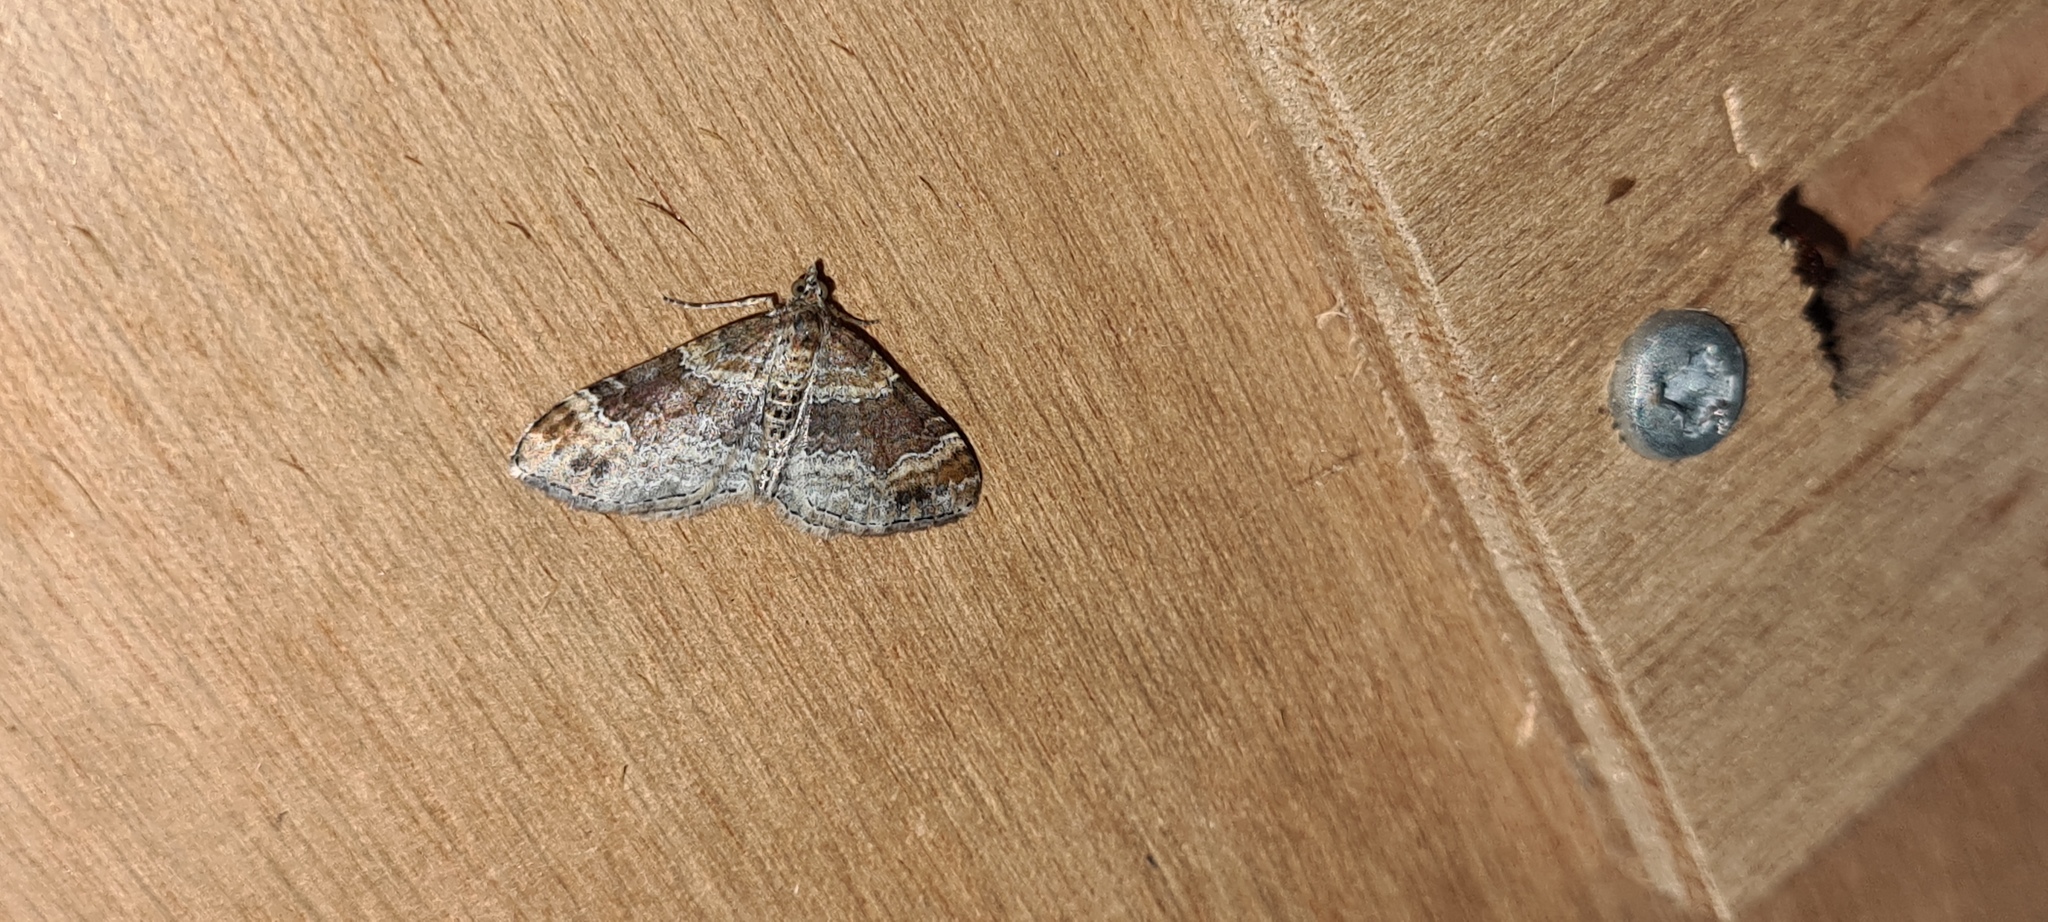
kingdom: Animalia
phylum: Arthropoda
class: Insecta
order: Lepidoptera
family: Geometridae
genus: Xanthorhoe
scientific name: Xanthorhoe spadicearia
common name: Red twin-spot carpet
